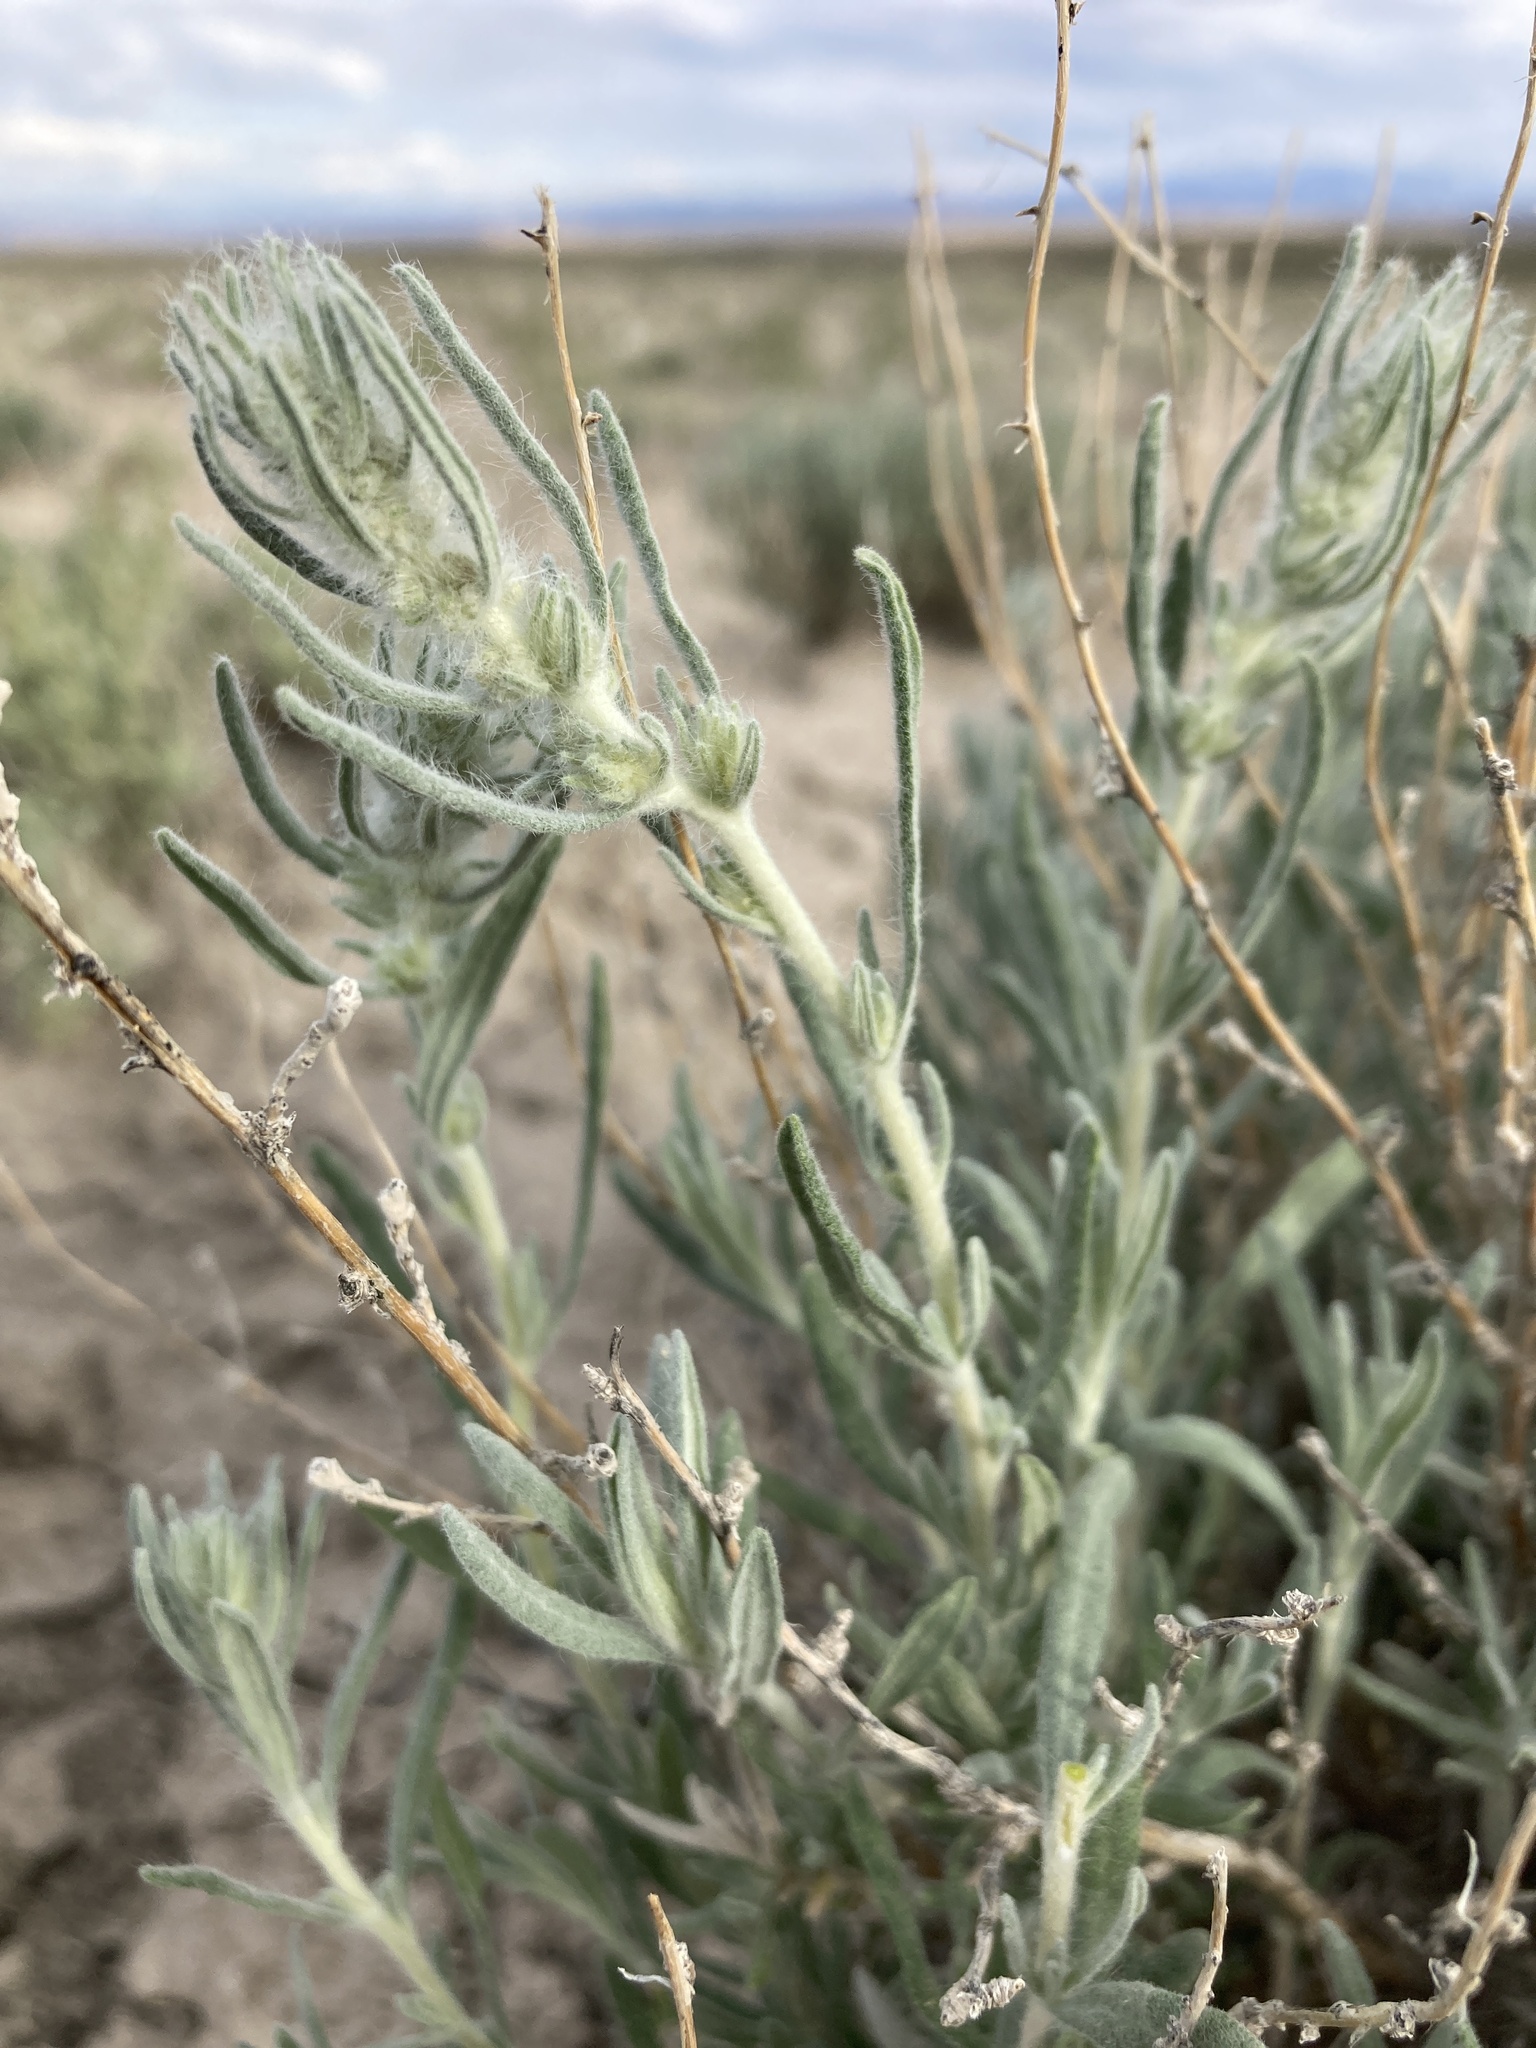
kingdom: Plantae
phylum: Tracheophyta
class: Magnoliopsida
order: Caryophyllales
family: Amaranthaceae
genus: Krascheninnikovia
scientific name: Krascheninnikovia lanata
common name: Winterfat
